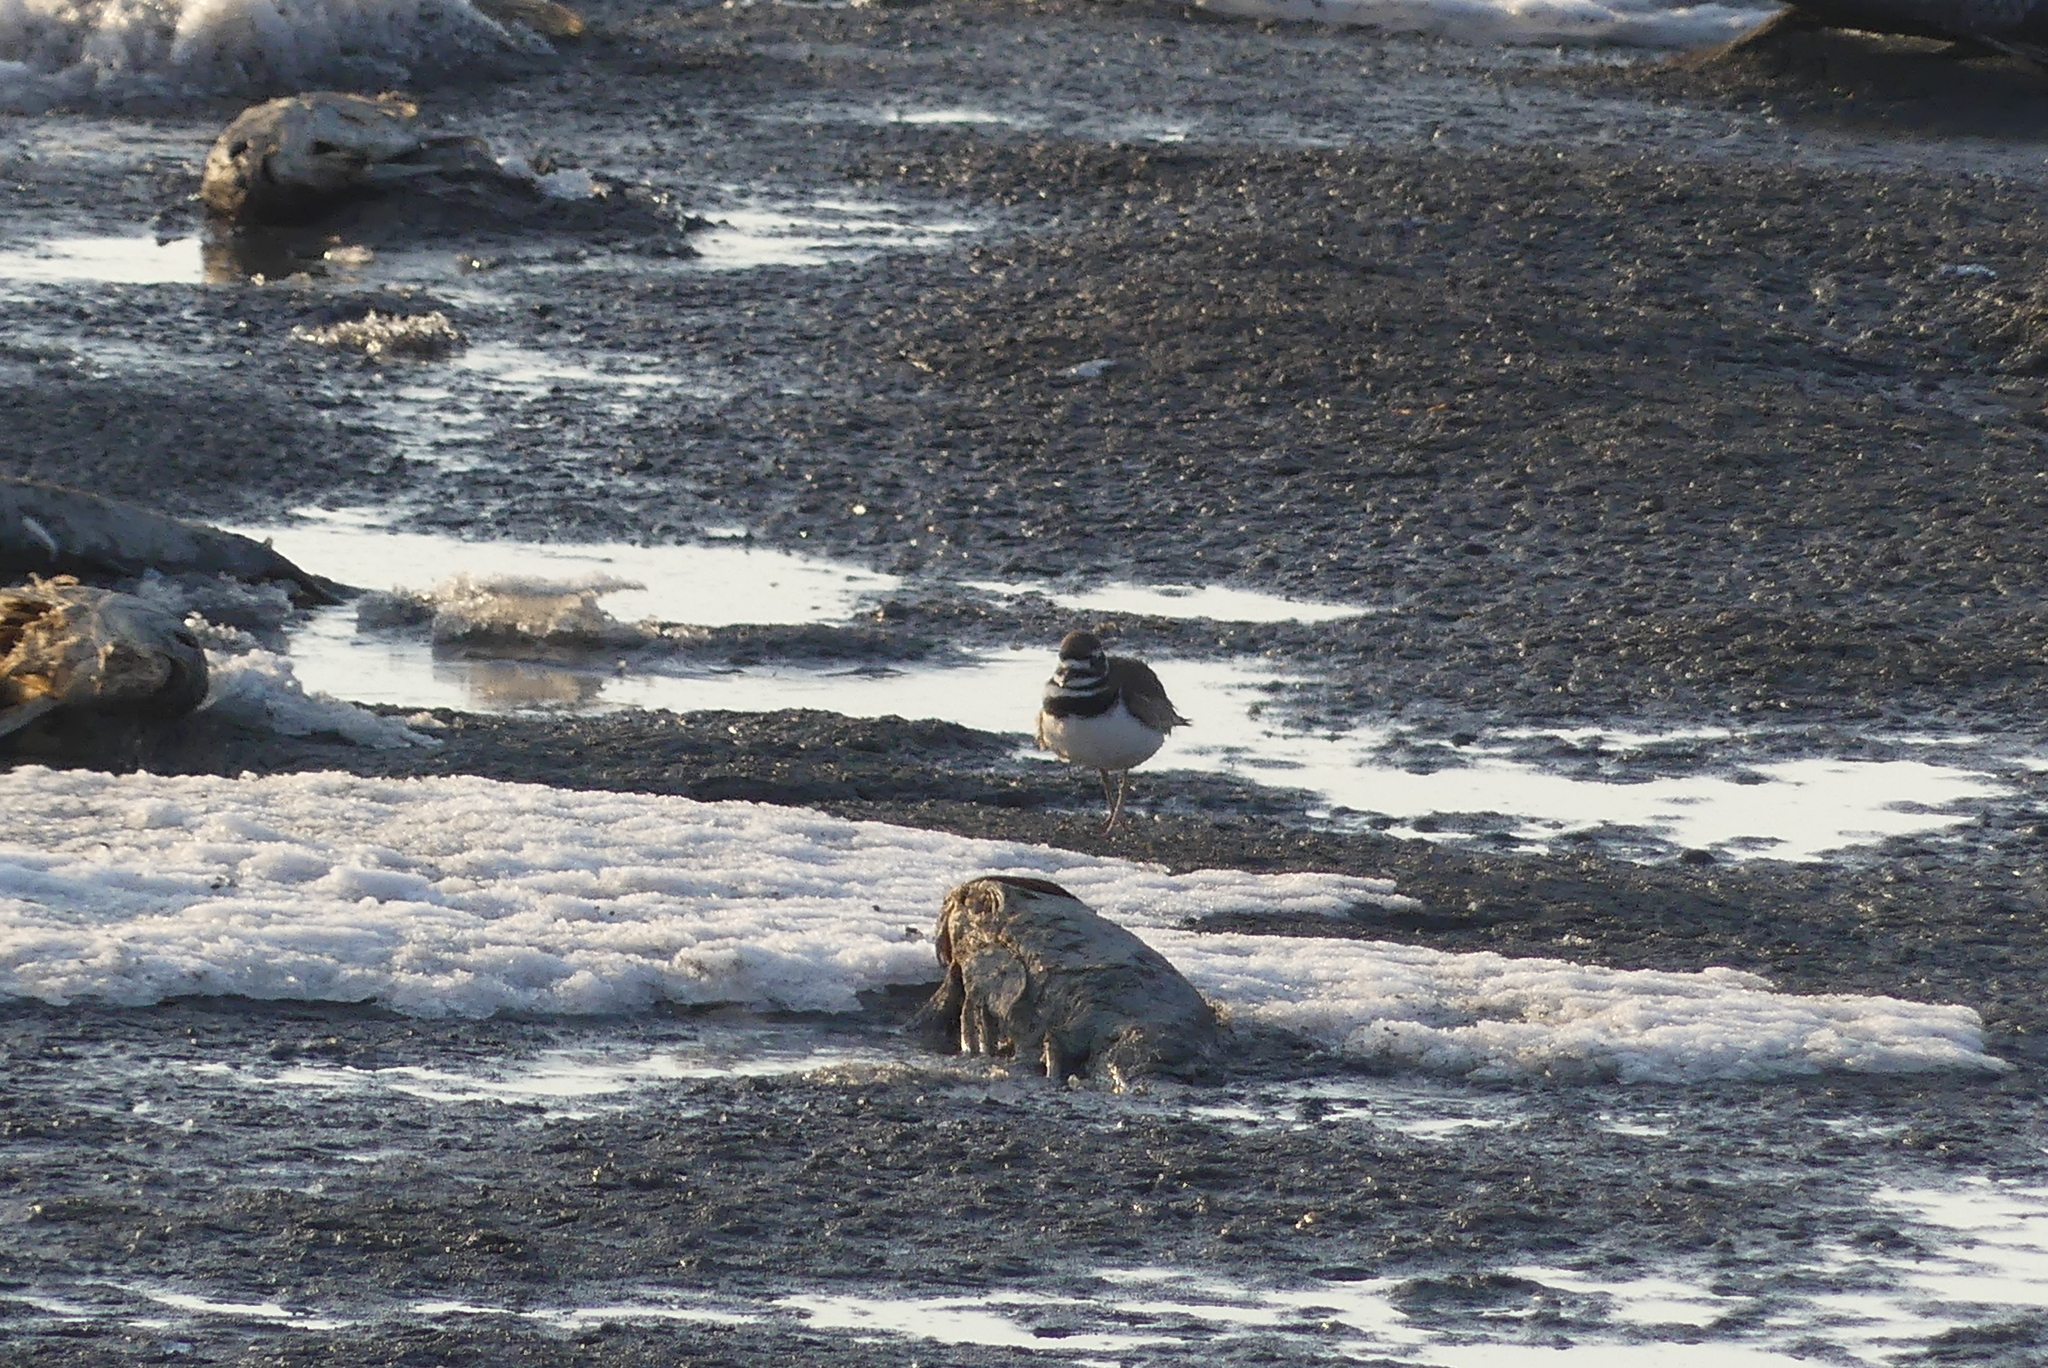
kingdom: Animalia
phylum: Chordata
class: Aves
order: Charadriiformes
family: Charadriidae
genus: Charadrius
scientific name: Charadrius vociferus
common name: Killdeer
